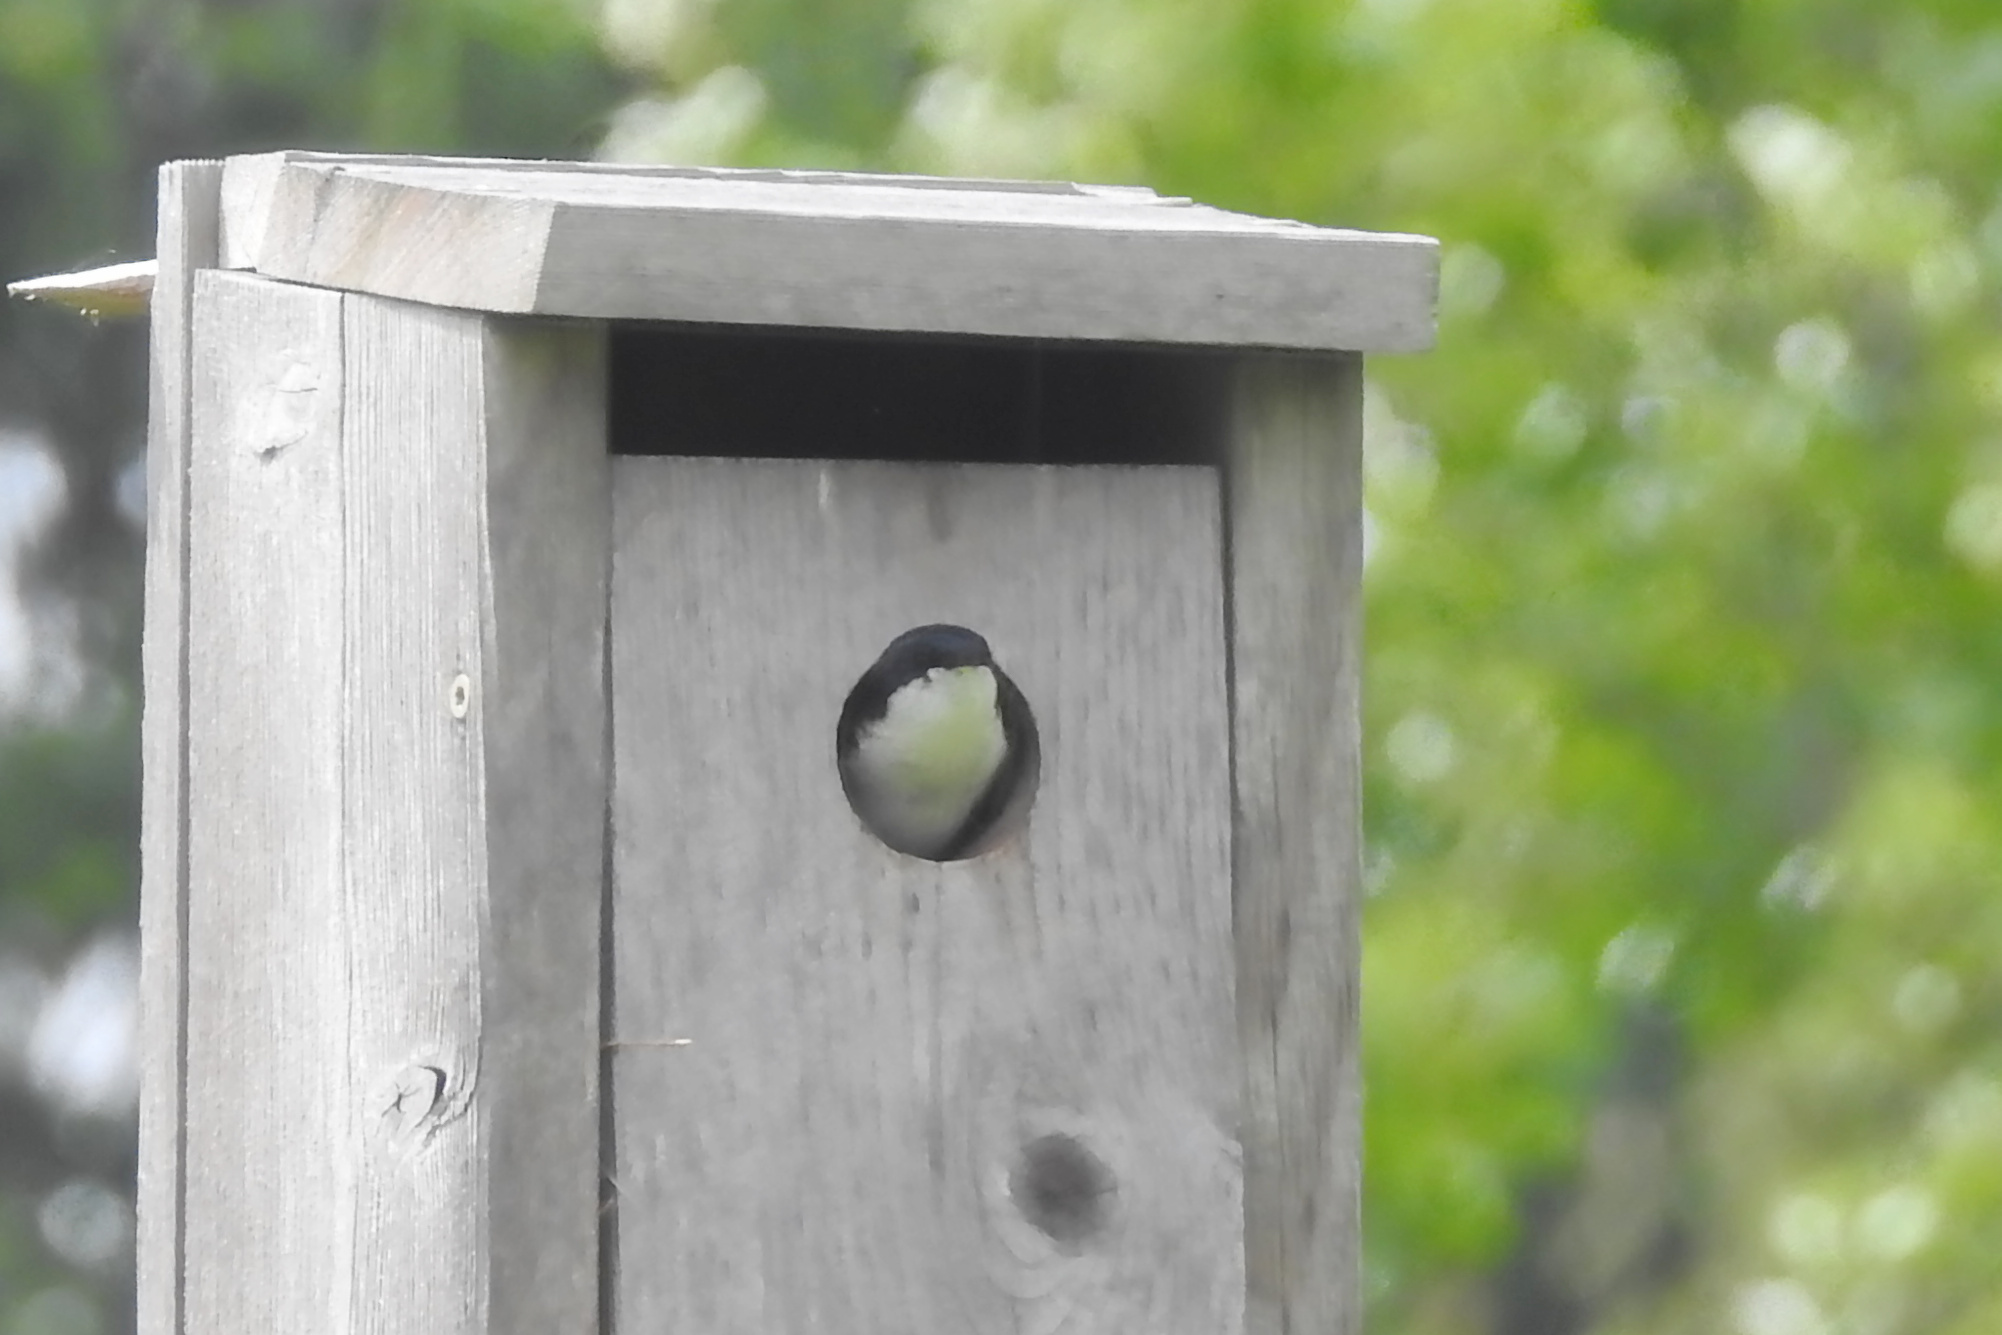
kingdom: Animalia
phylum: Chordata
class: Aves
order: Passeriformes
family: Hirundinidae
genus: Tachycineta
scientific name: Tachycineta bicolor
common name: Tree swallow
